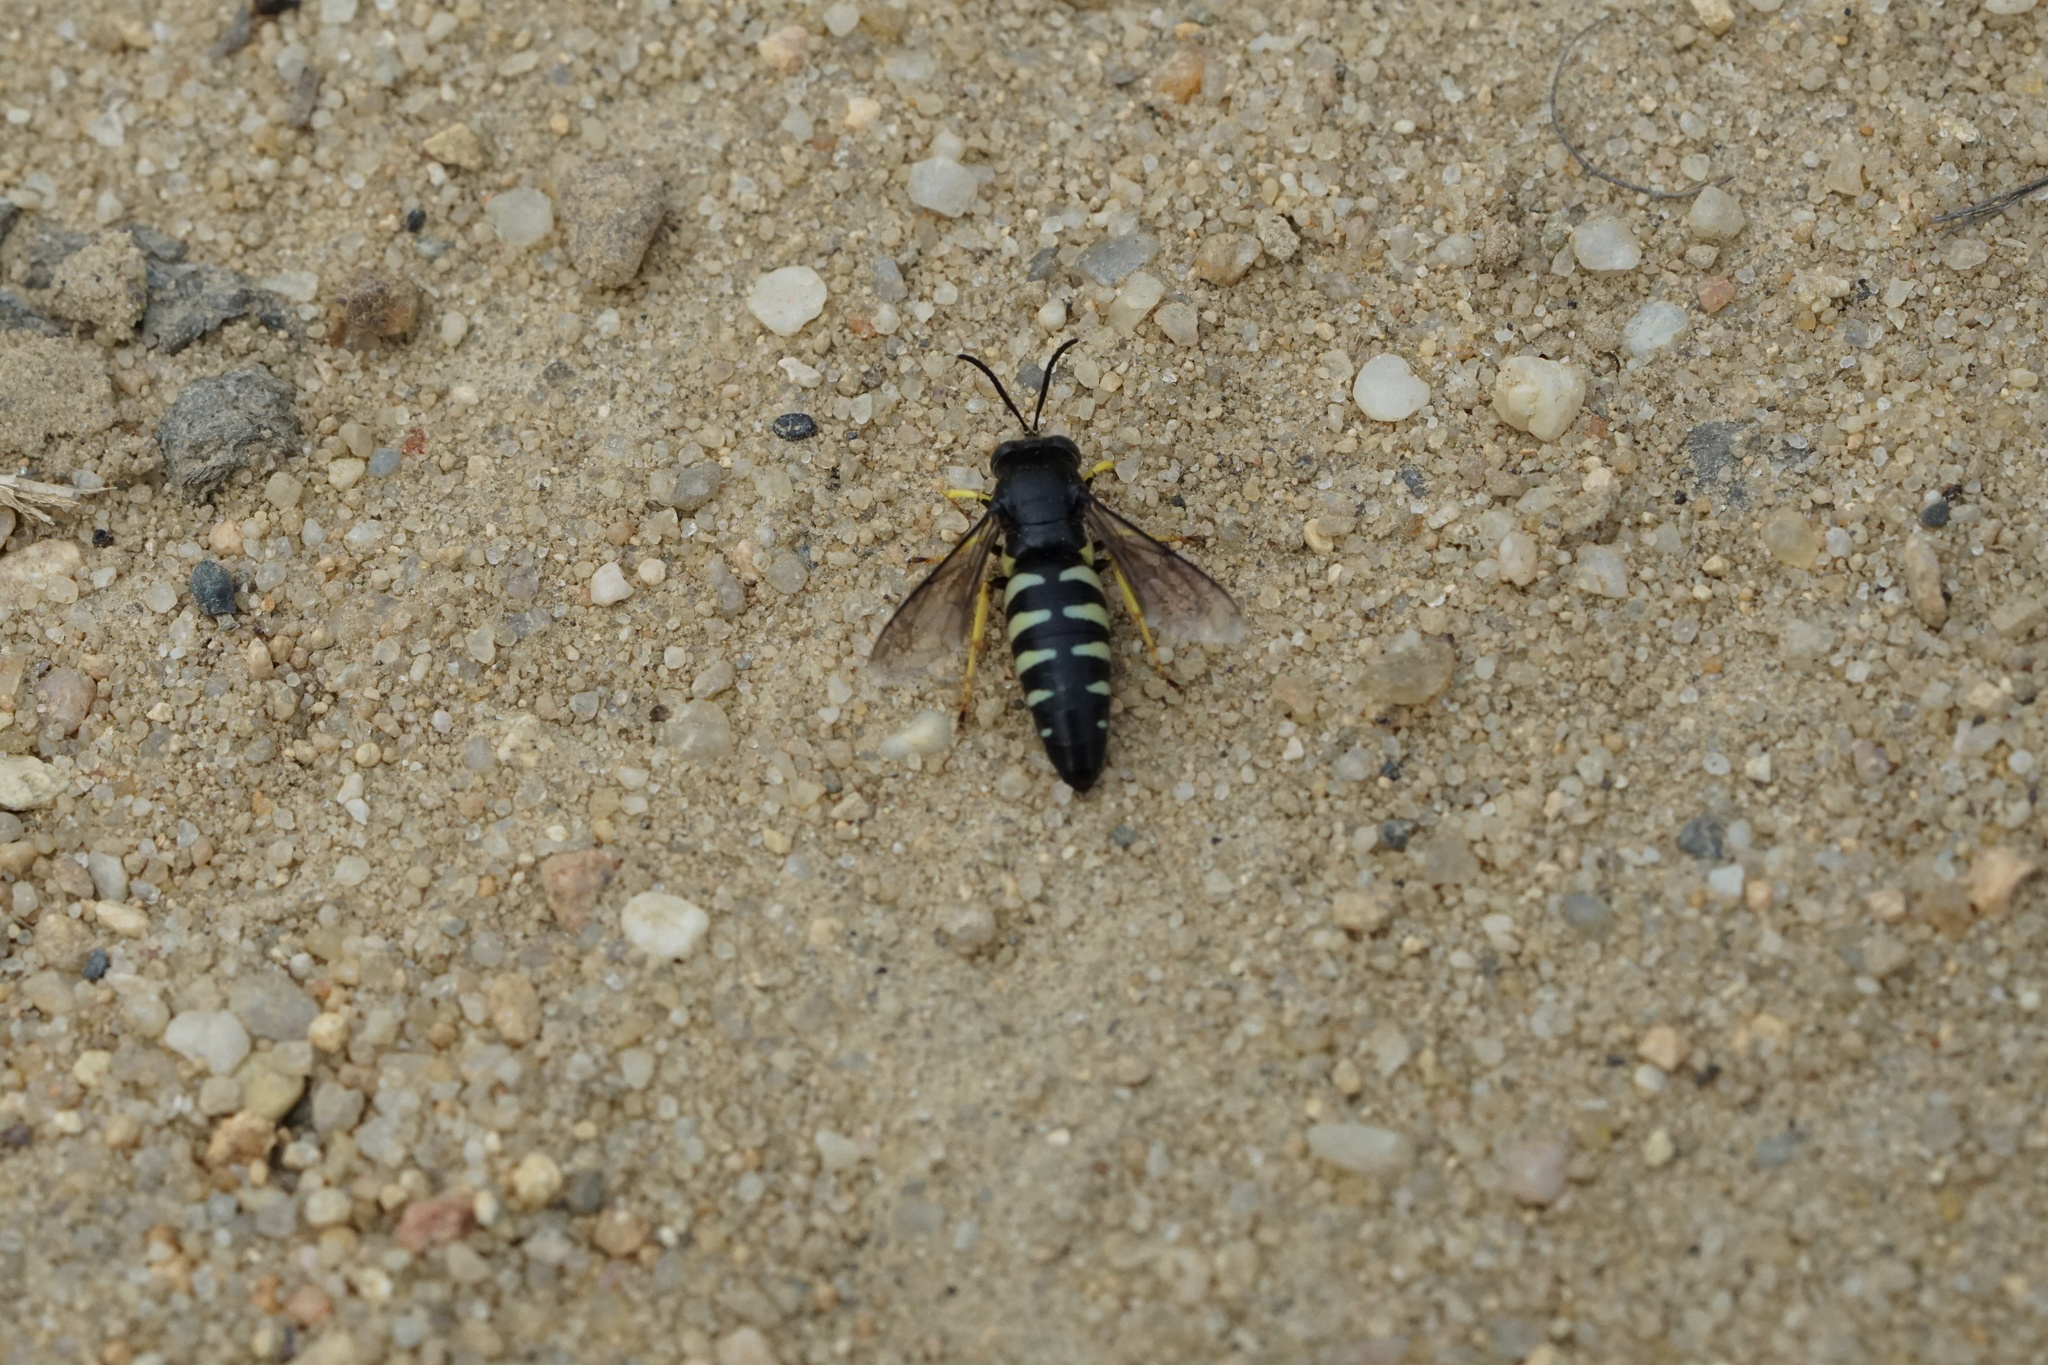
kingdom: Animalia
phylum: Arthropoda
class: Insecta
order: Hymenoptera
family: Crabronidae
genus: Bicyrtes
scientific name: Bicyrtes quadrifasciatus
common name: Four-banded stink bug hunter wasp
